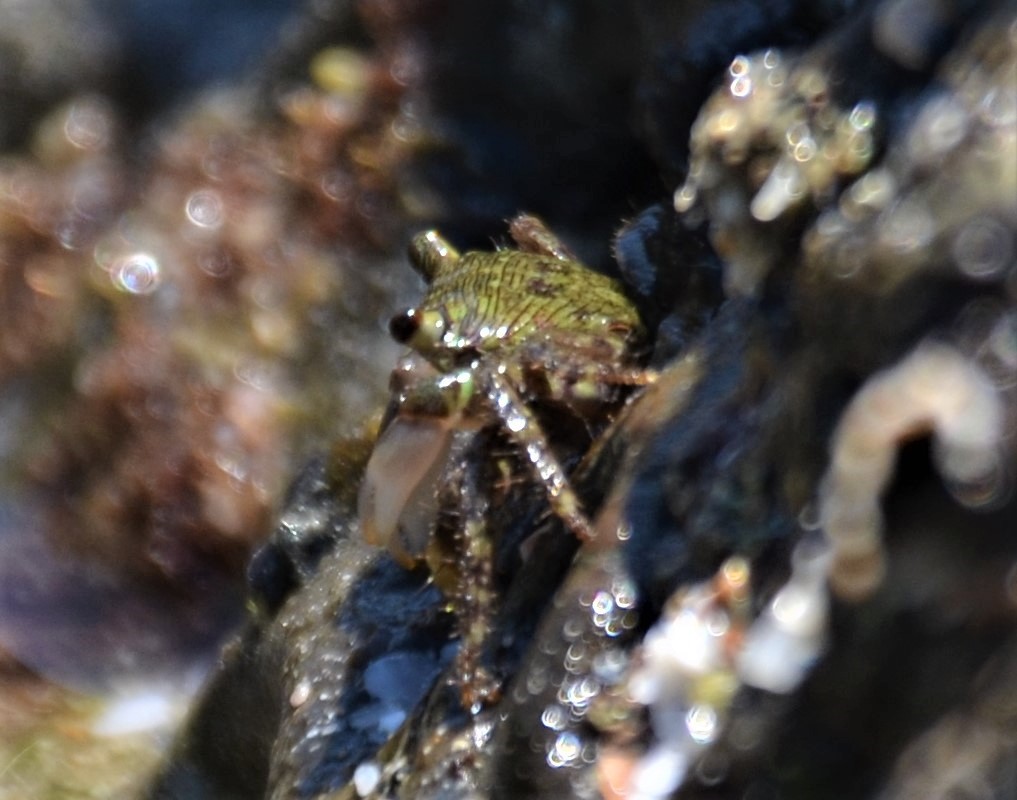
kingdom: Animalia
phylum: Arthropoda
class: Malacostraca
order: Decapoda
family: Grapsidae
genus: Pachygrapsus
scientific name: Pachygrapsus socius
